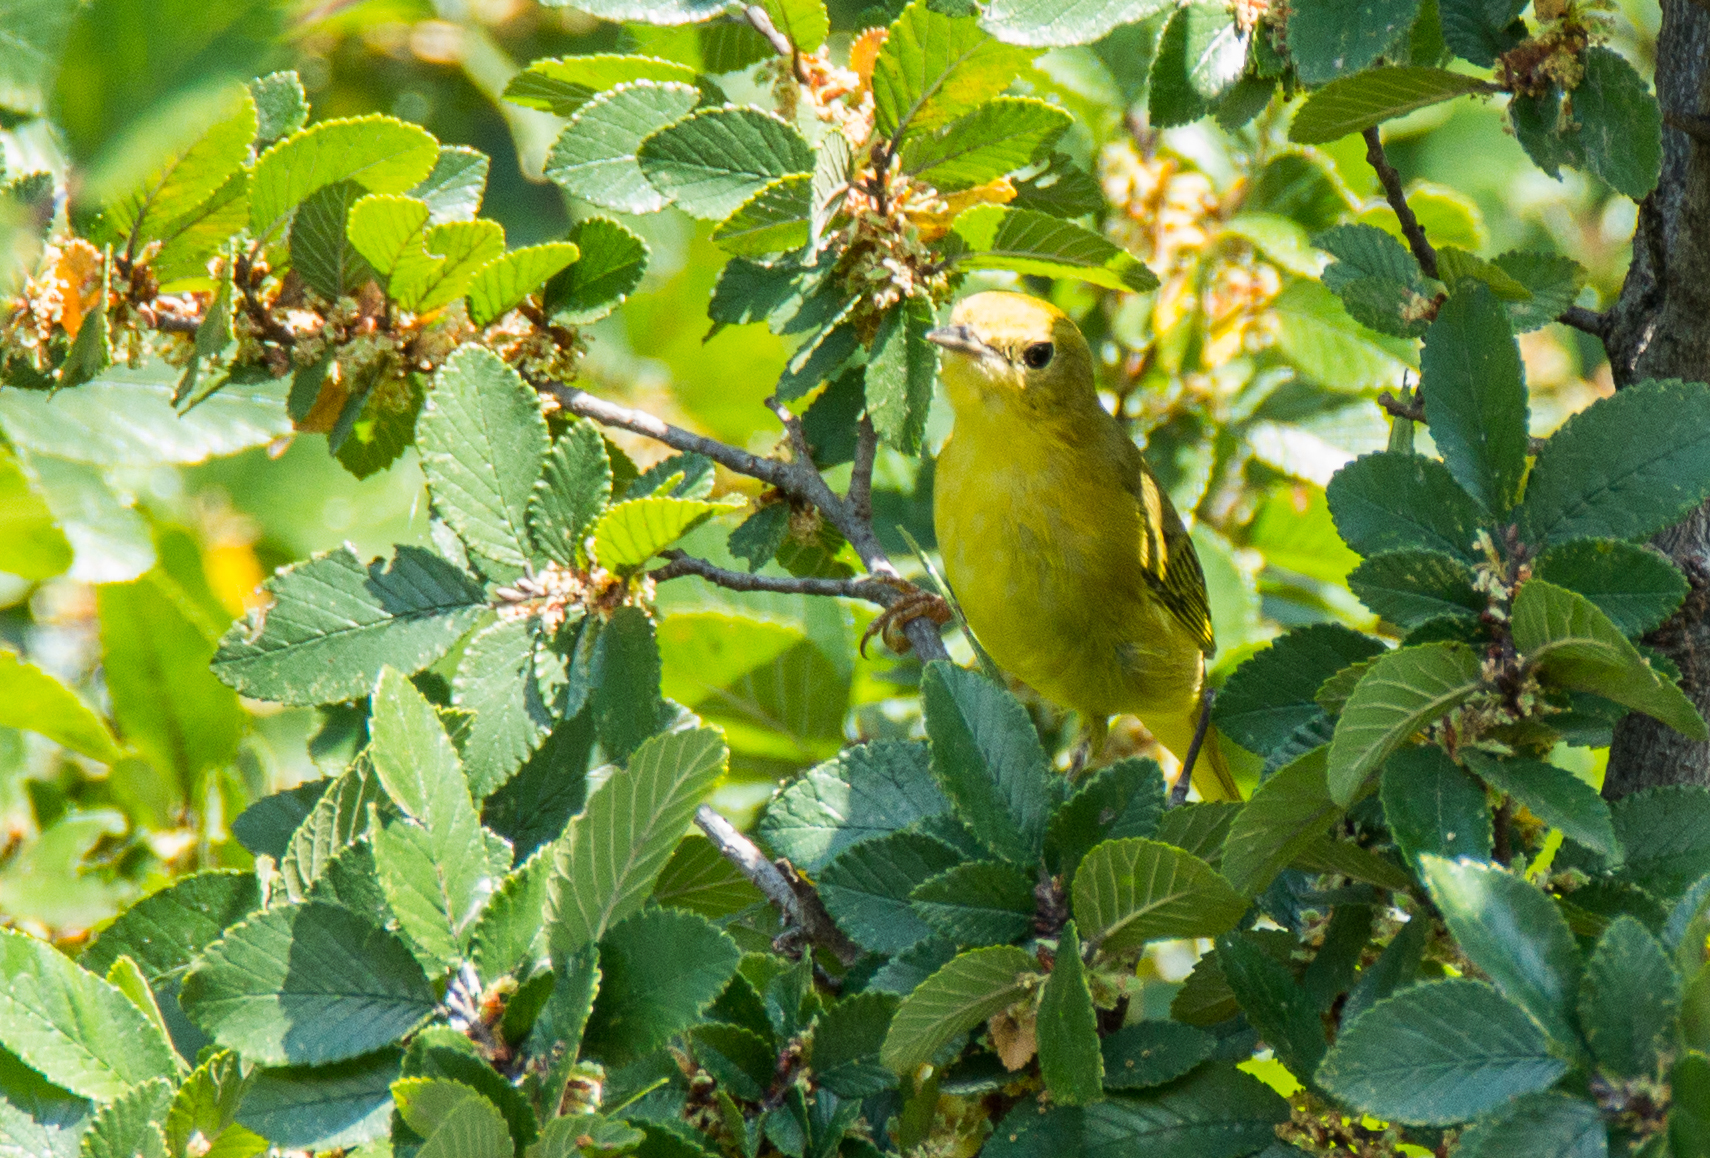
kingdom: Animalia
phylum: Chordata
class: Aves
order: Passeriformes
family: Parulidae
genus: Setophaga
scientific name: Setophaga petechia
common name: Yellow warbler
